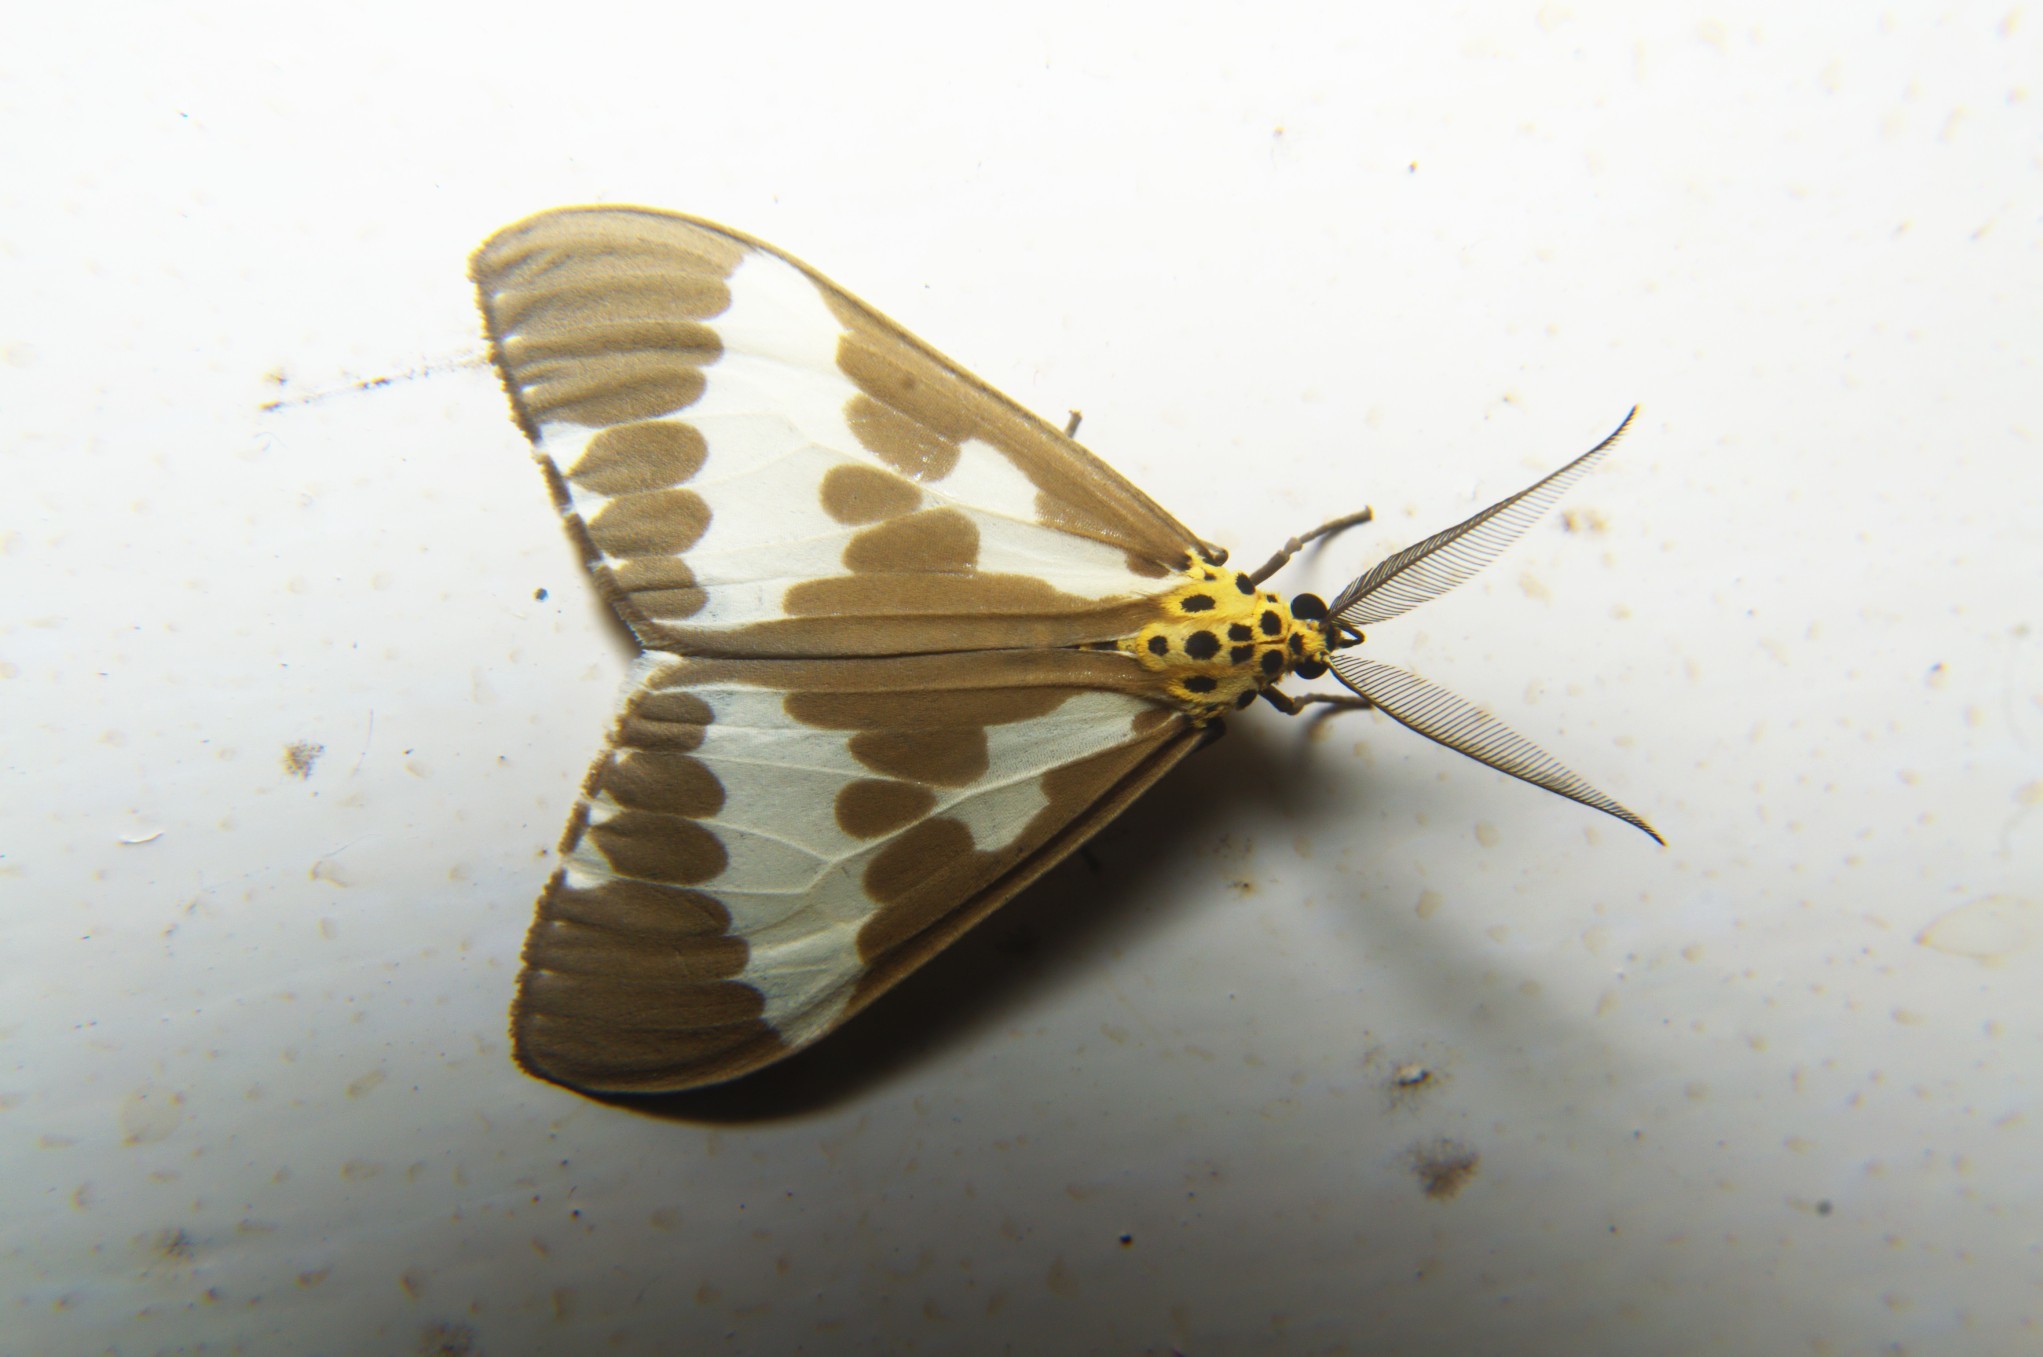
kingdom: Animalia
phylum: Arthropoda
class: Insecta
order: Lepidoptera
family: Erebidae
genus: Nyctemera
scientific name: Nyctemera arctata
